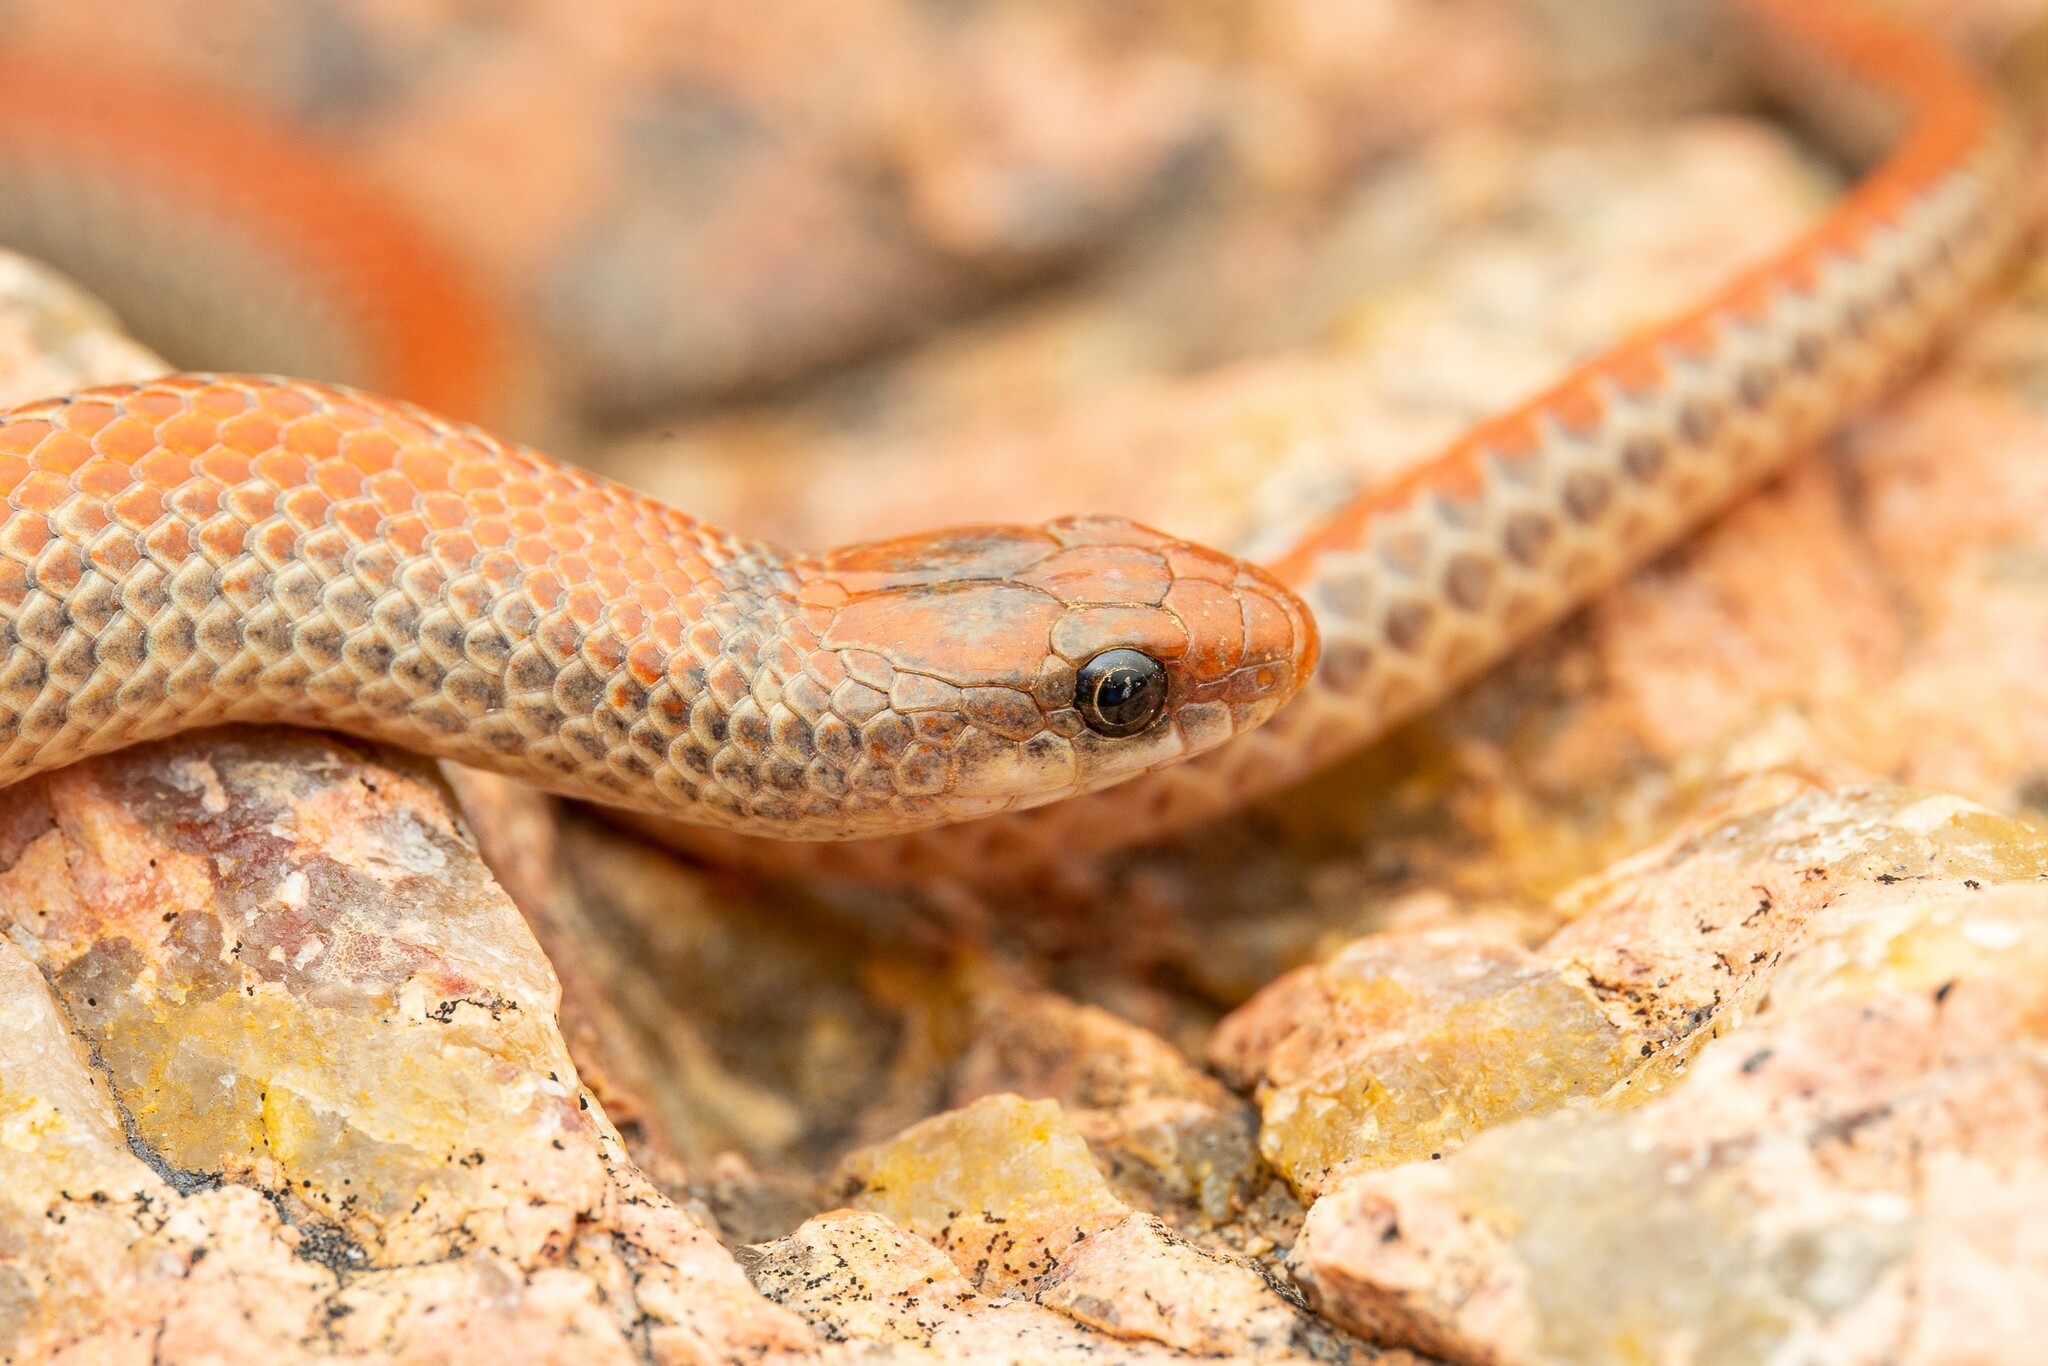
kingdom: Animalia
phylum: Chordata
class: Squamata
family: Colubridae
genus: Sonora
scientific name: Sonora semiannulata
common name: Ground snake
